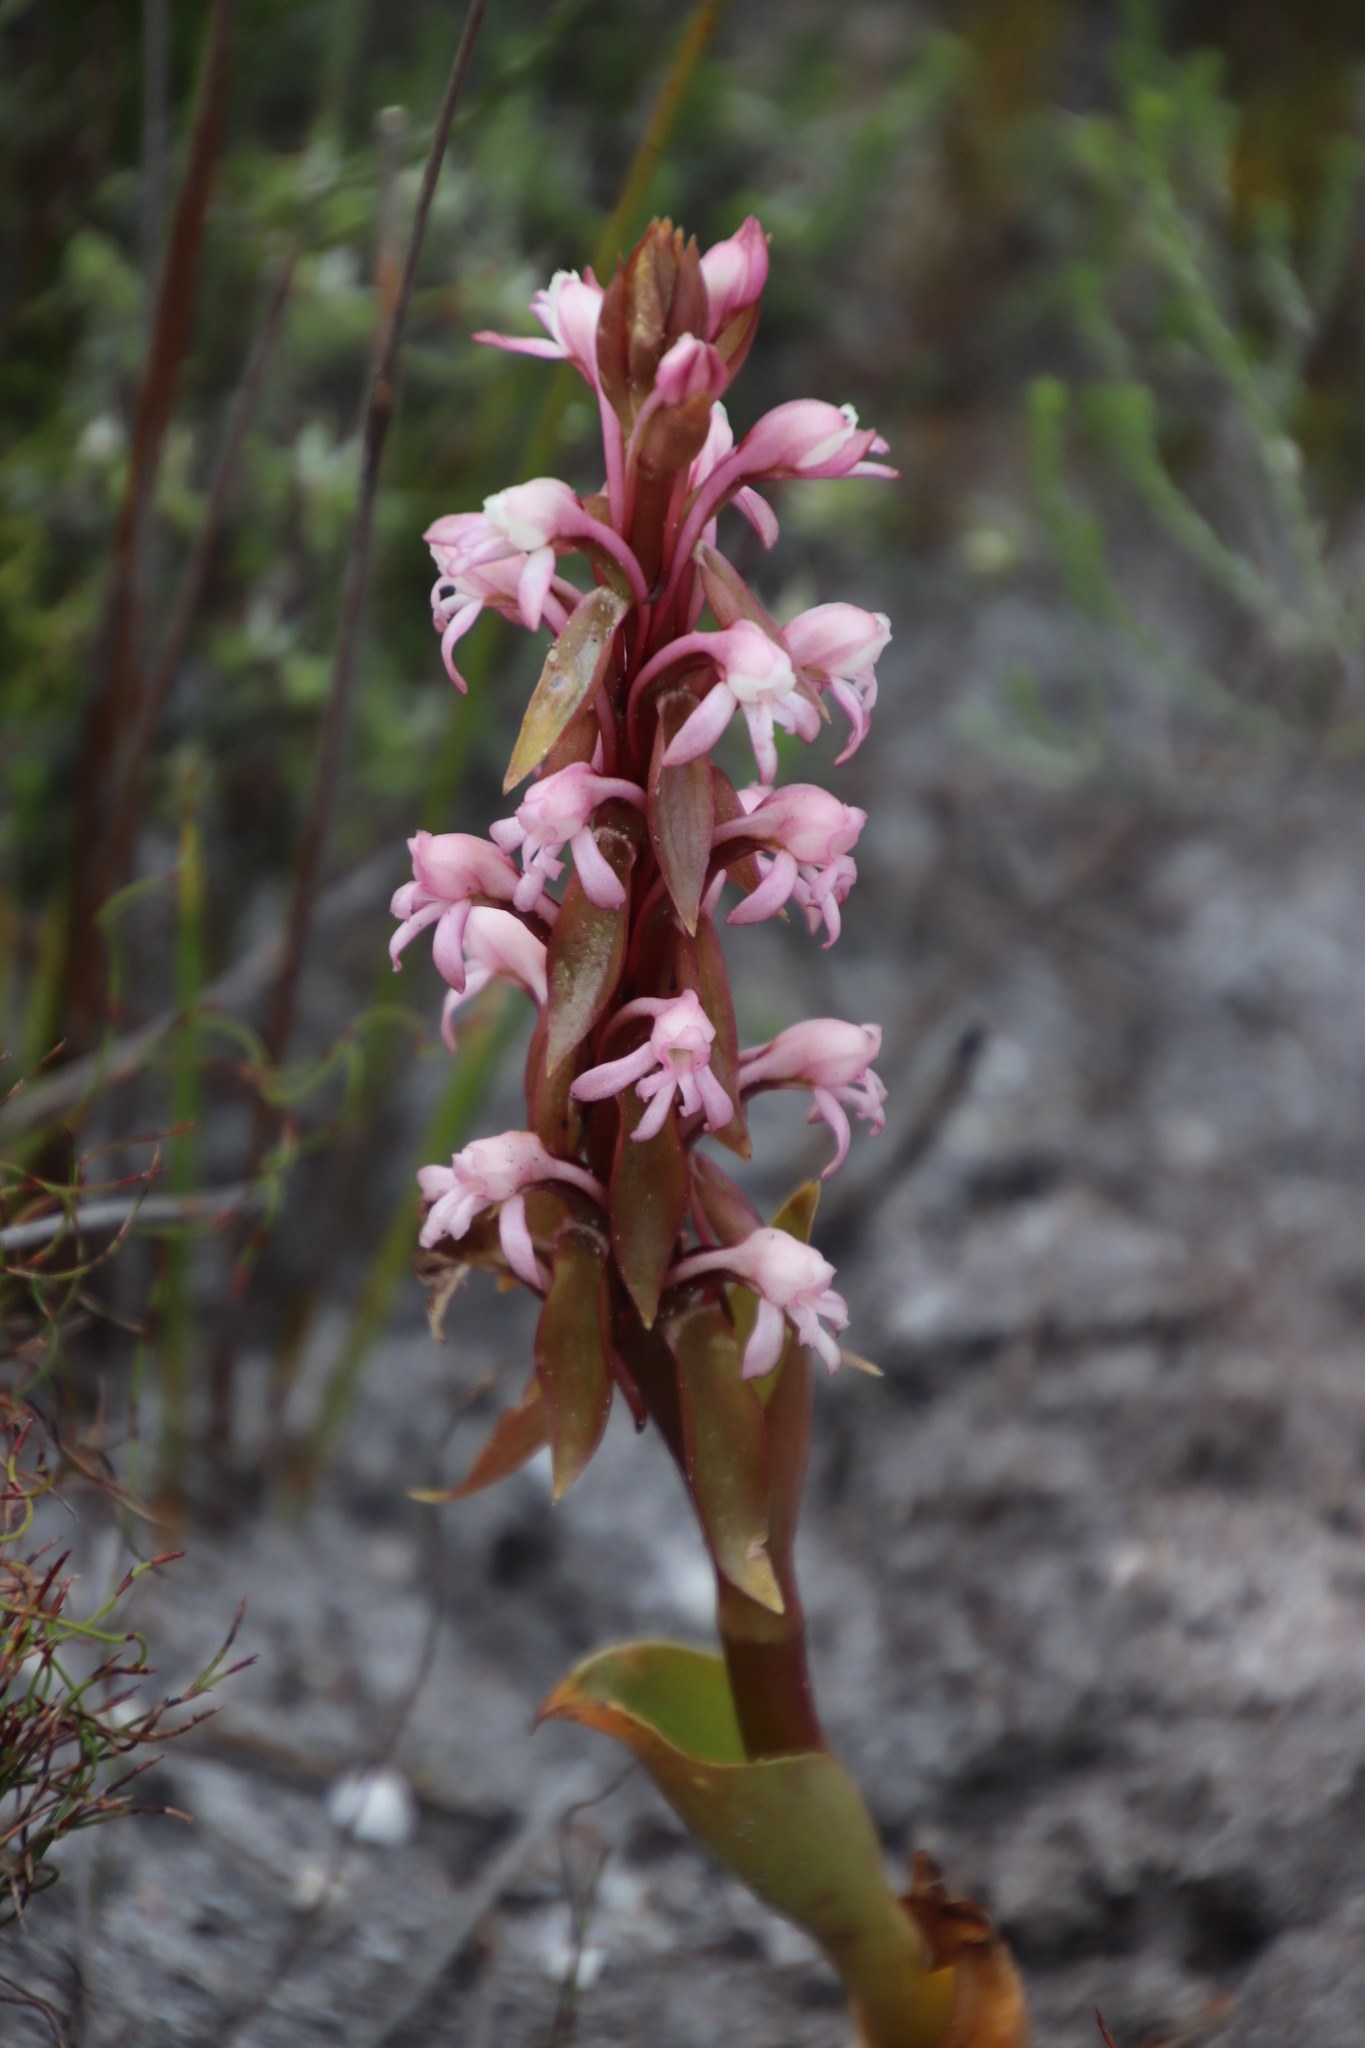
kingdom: Plantae
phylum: Tracheophyta
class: Liliopsida
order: Asparagales
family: Orchidaceae
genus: Satyrium
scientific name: Satyrium candidum
